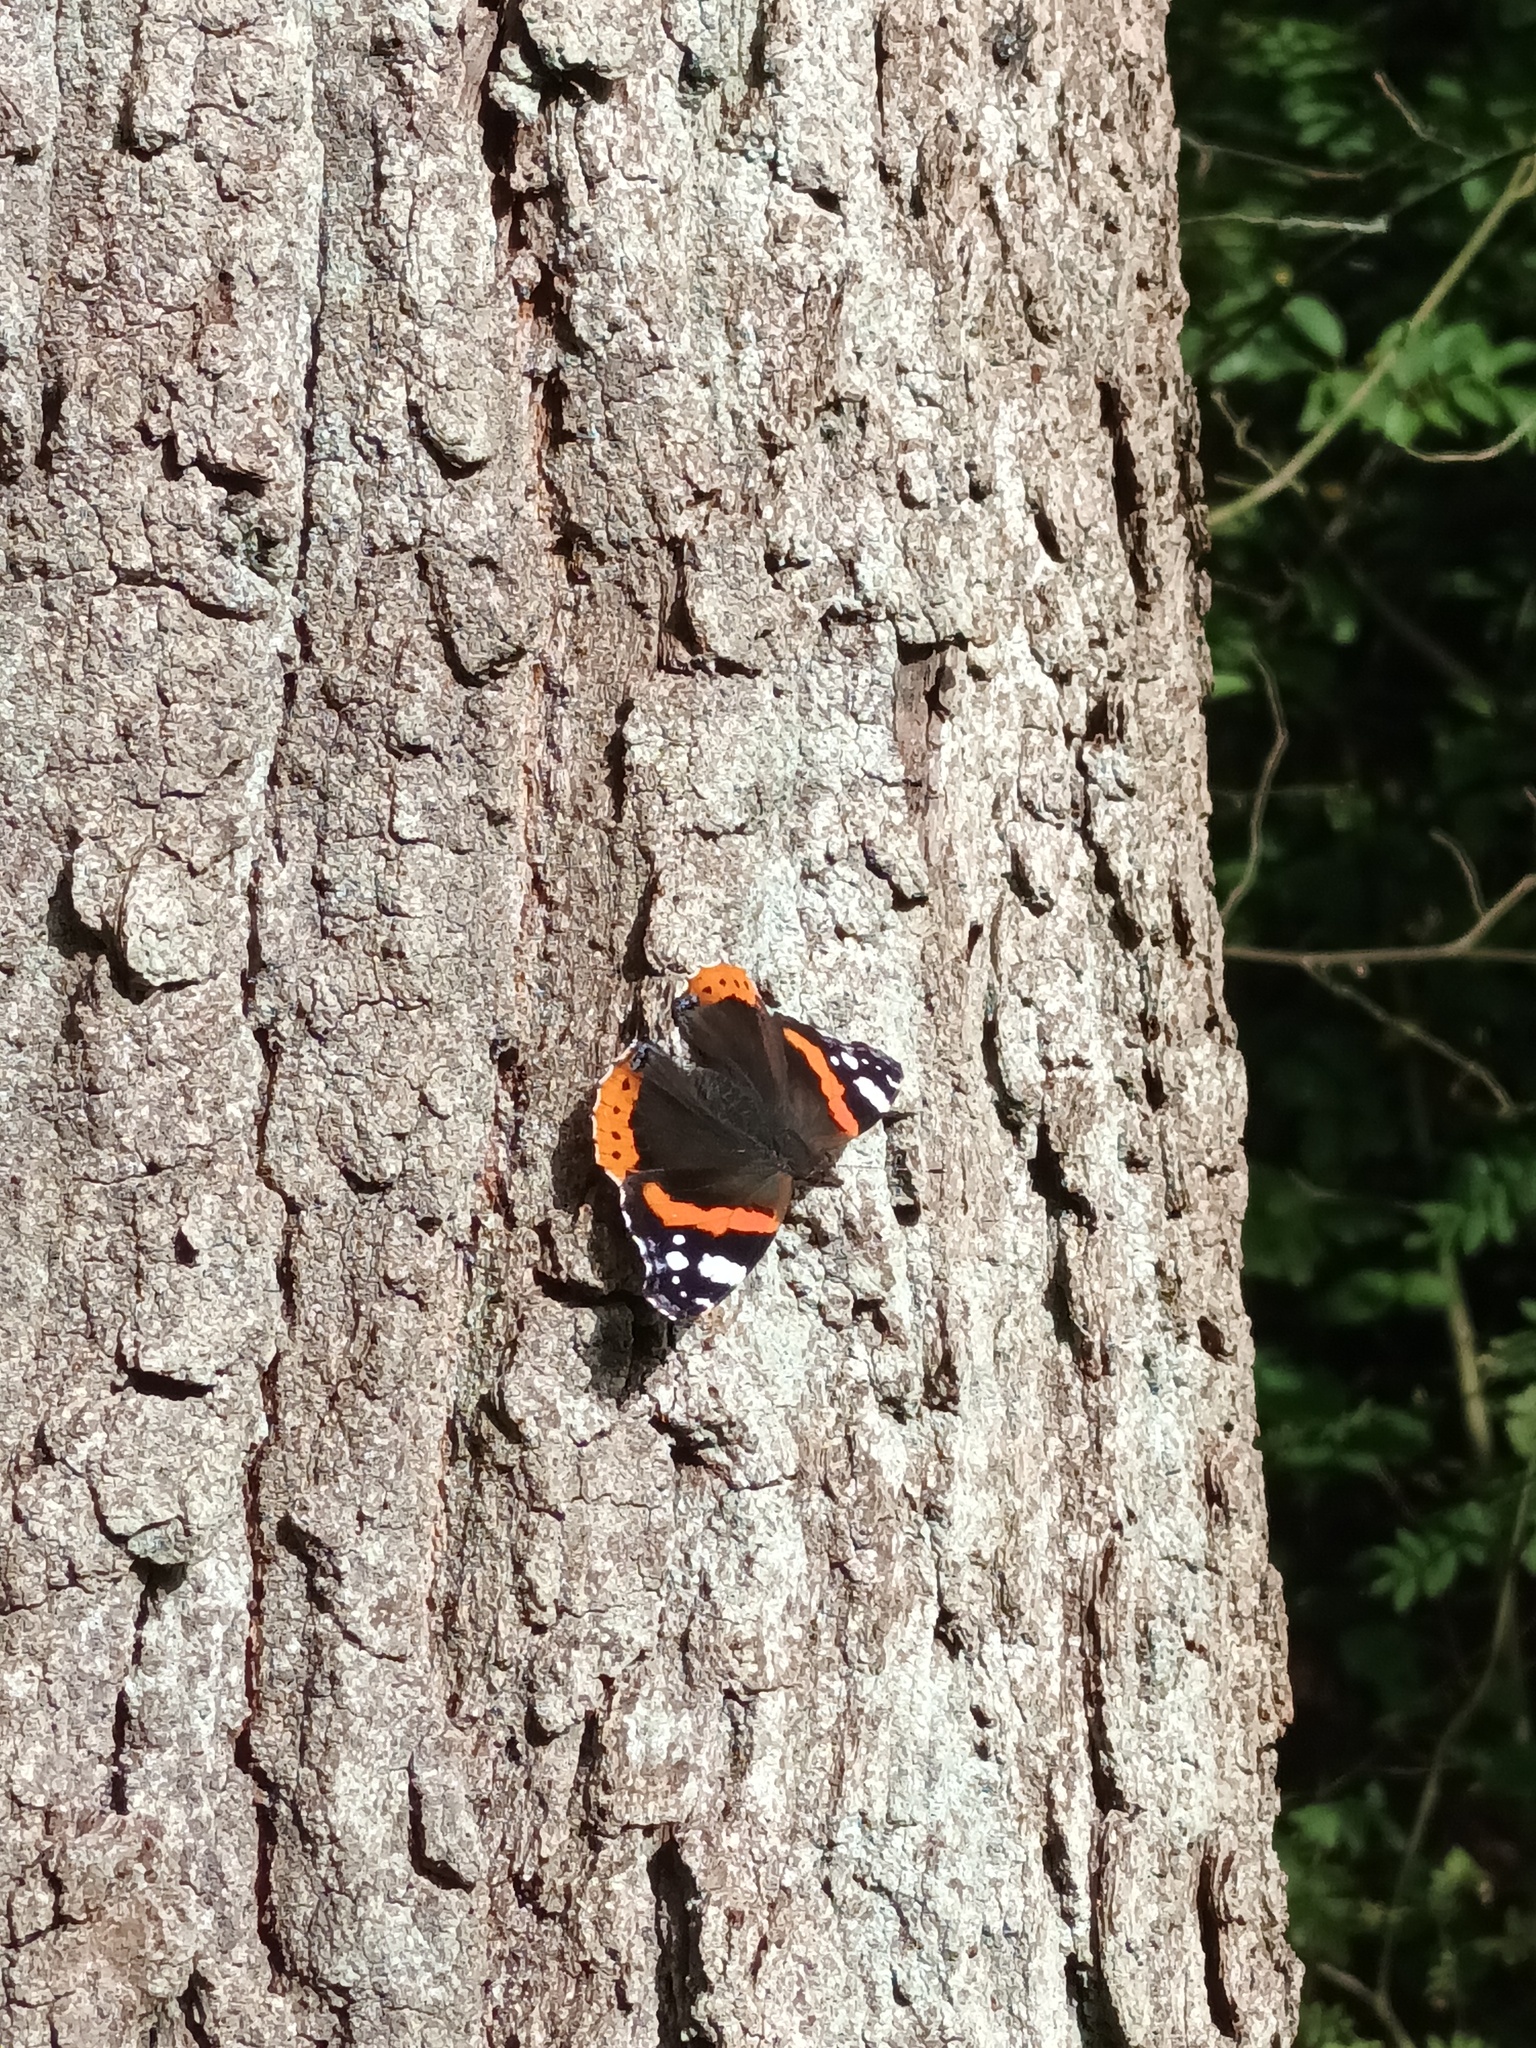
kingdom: Animalia
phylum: Arthropoda
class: Insecta
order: Lepidoptera
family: Nymphalidae
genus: Vanessa
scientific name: Vanessa atalanta
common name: Red admiral
